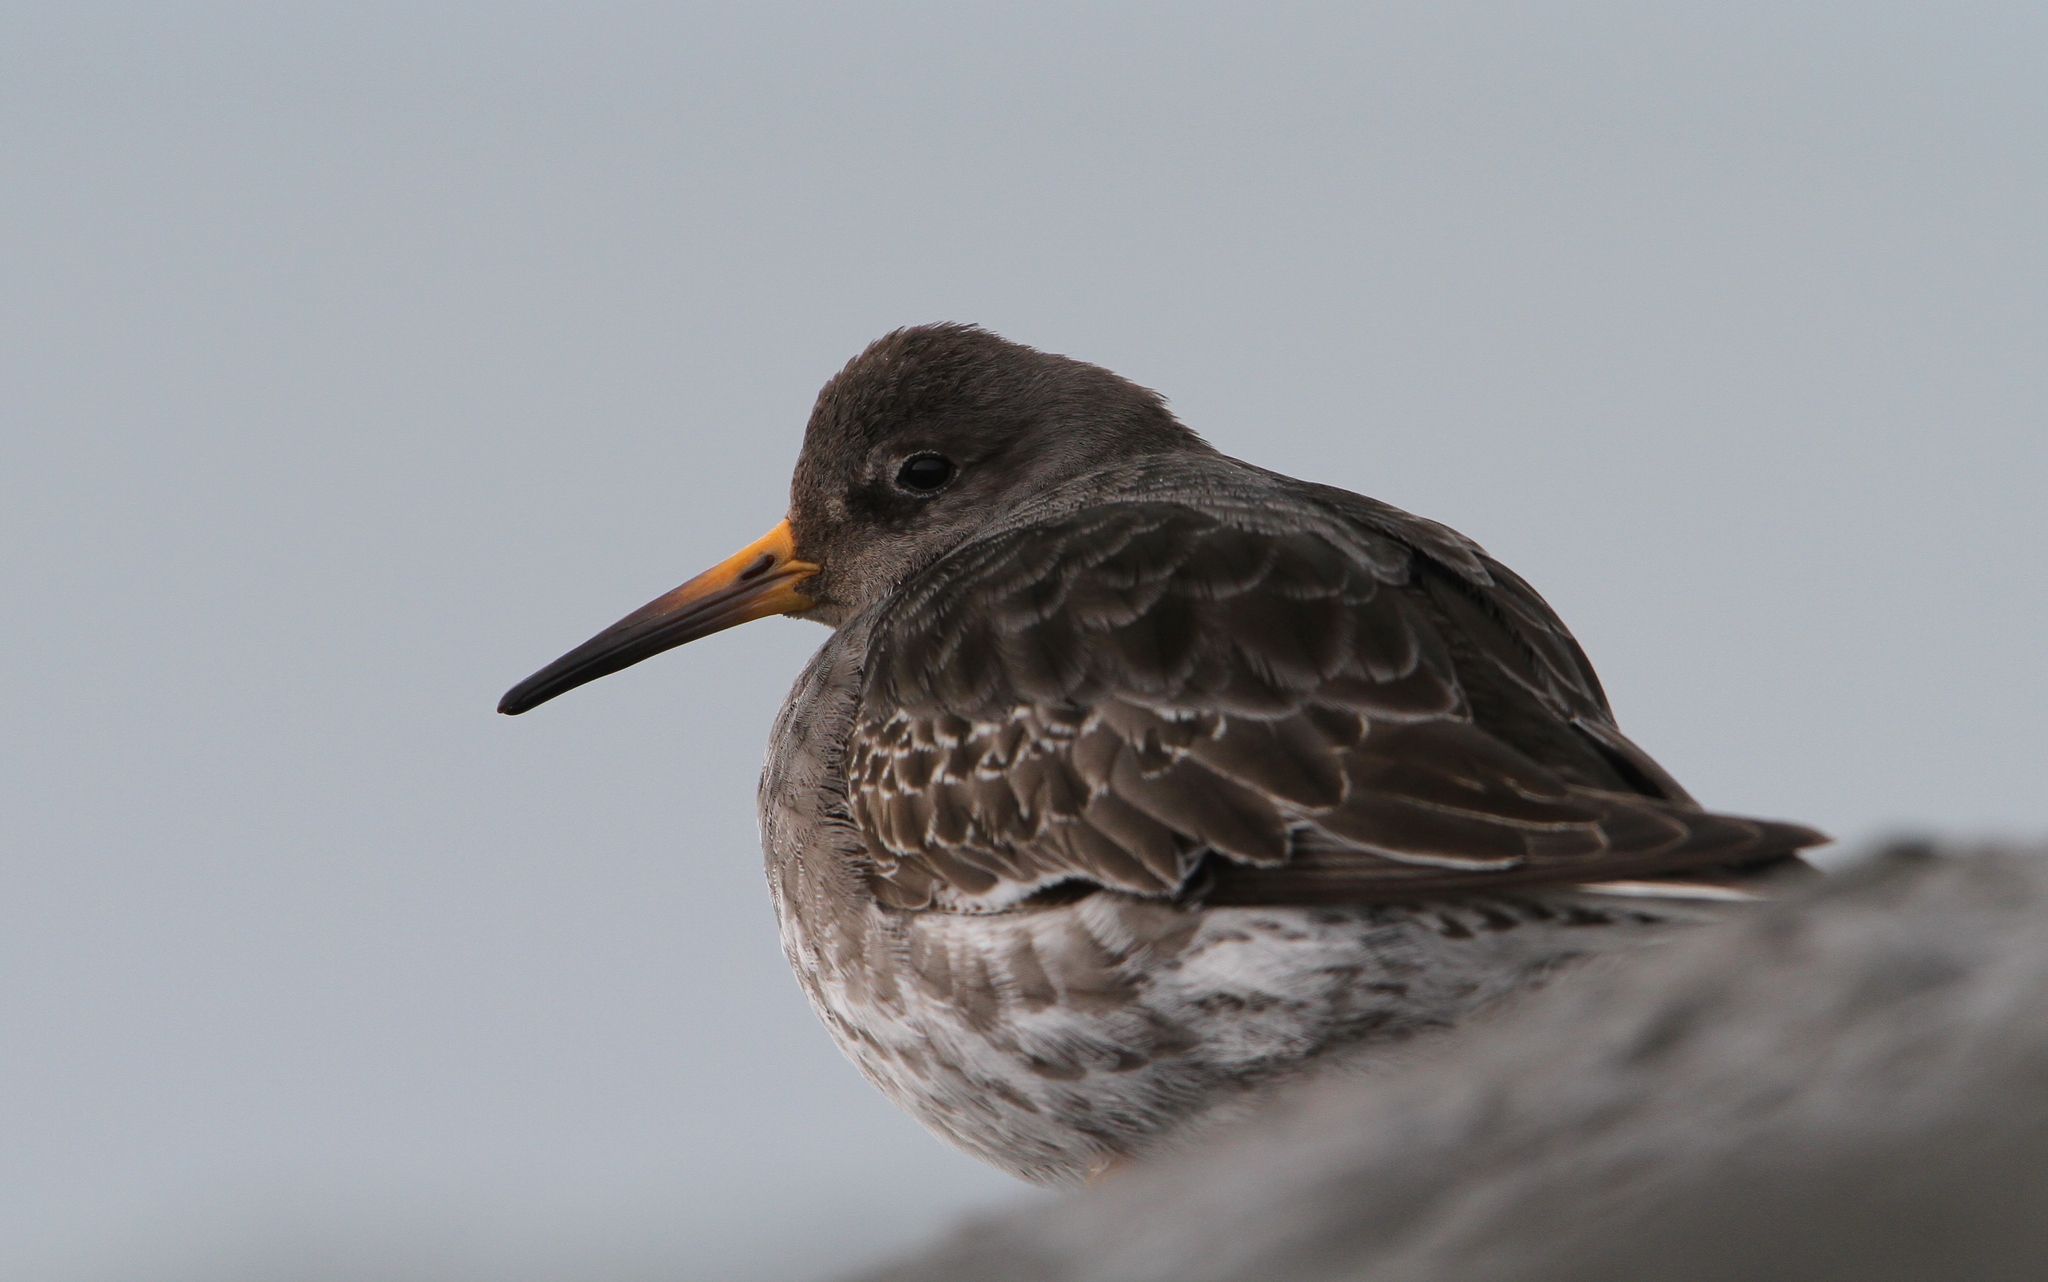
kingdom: Animalia
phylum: Chordata
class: Aves
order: Charadriiformes
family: Scolopacidae
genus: Calidris
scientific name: Calidris maritima
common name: Purple sandpiper
